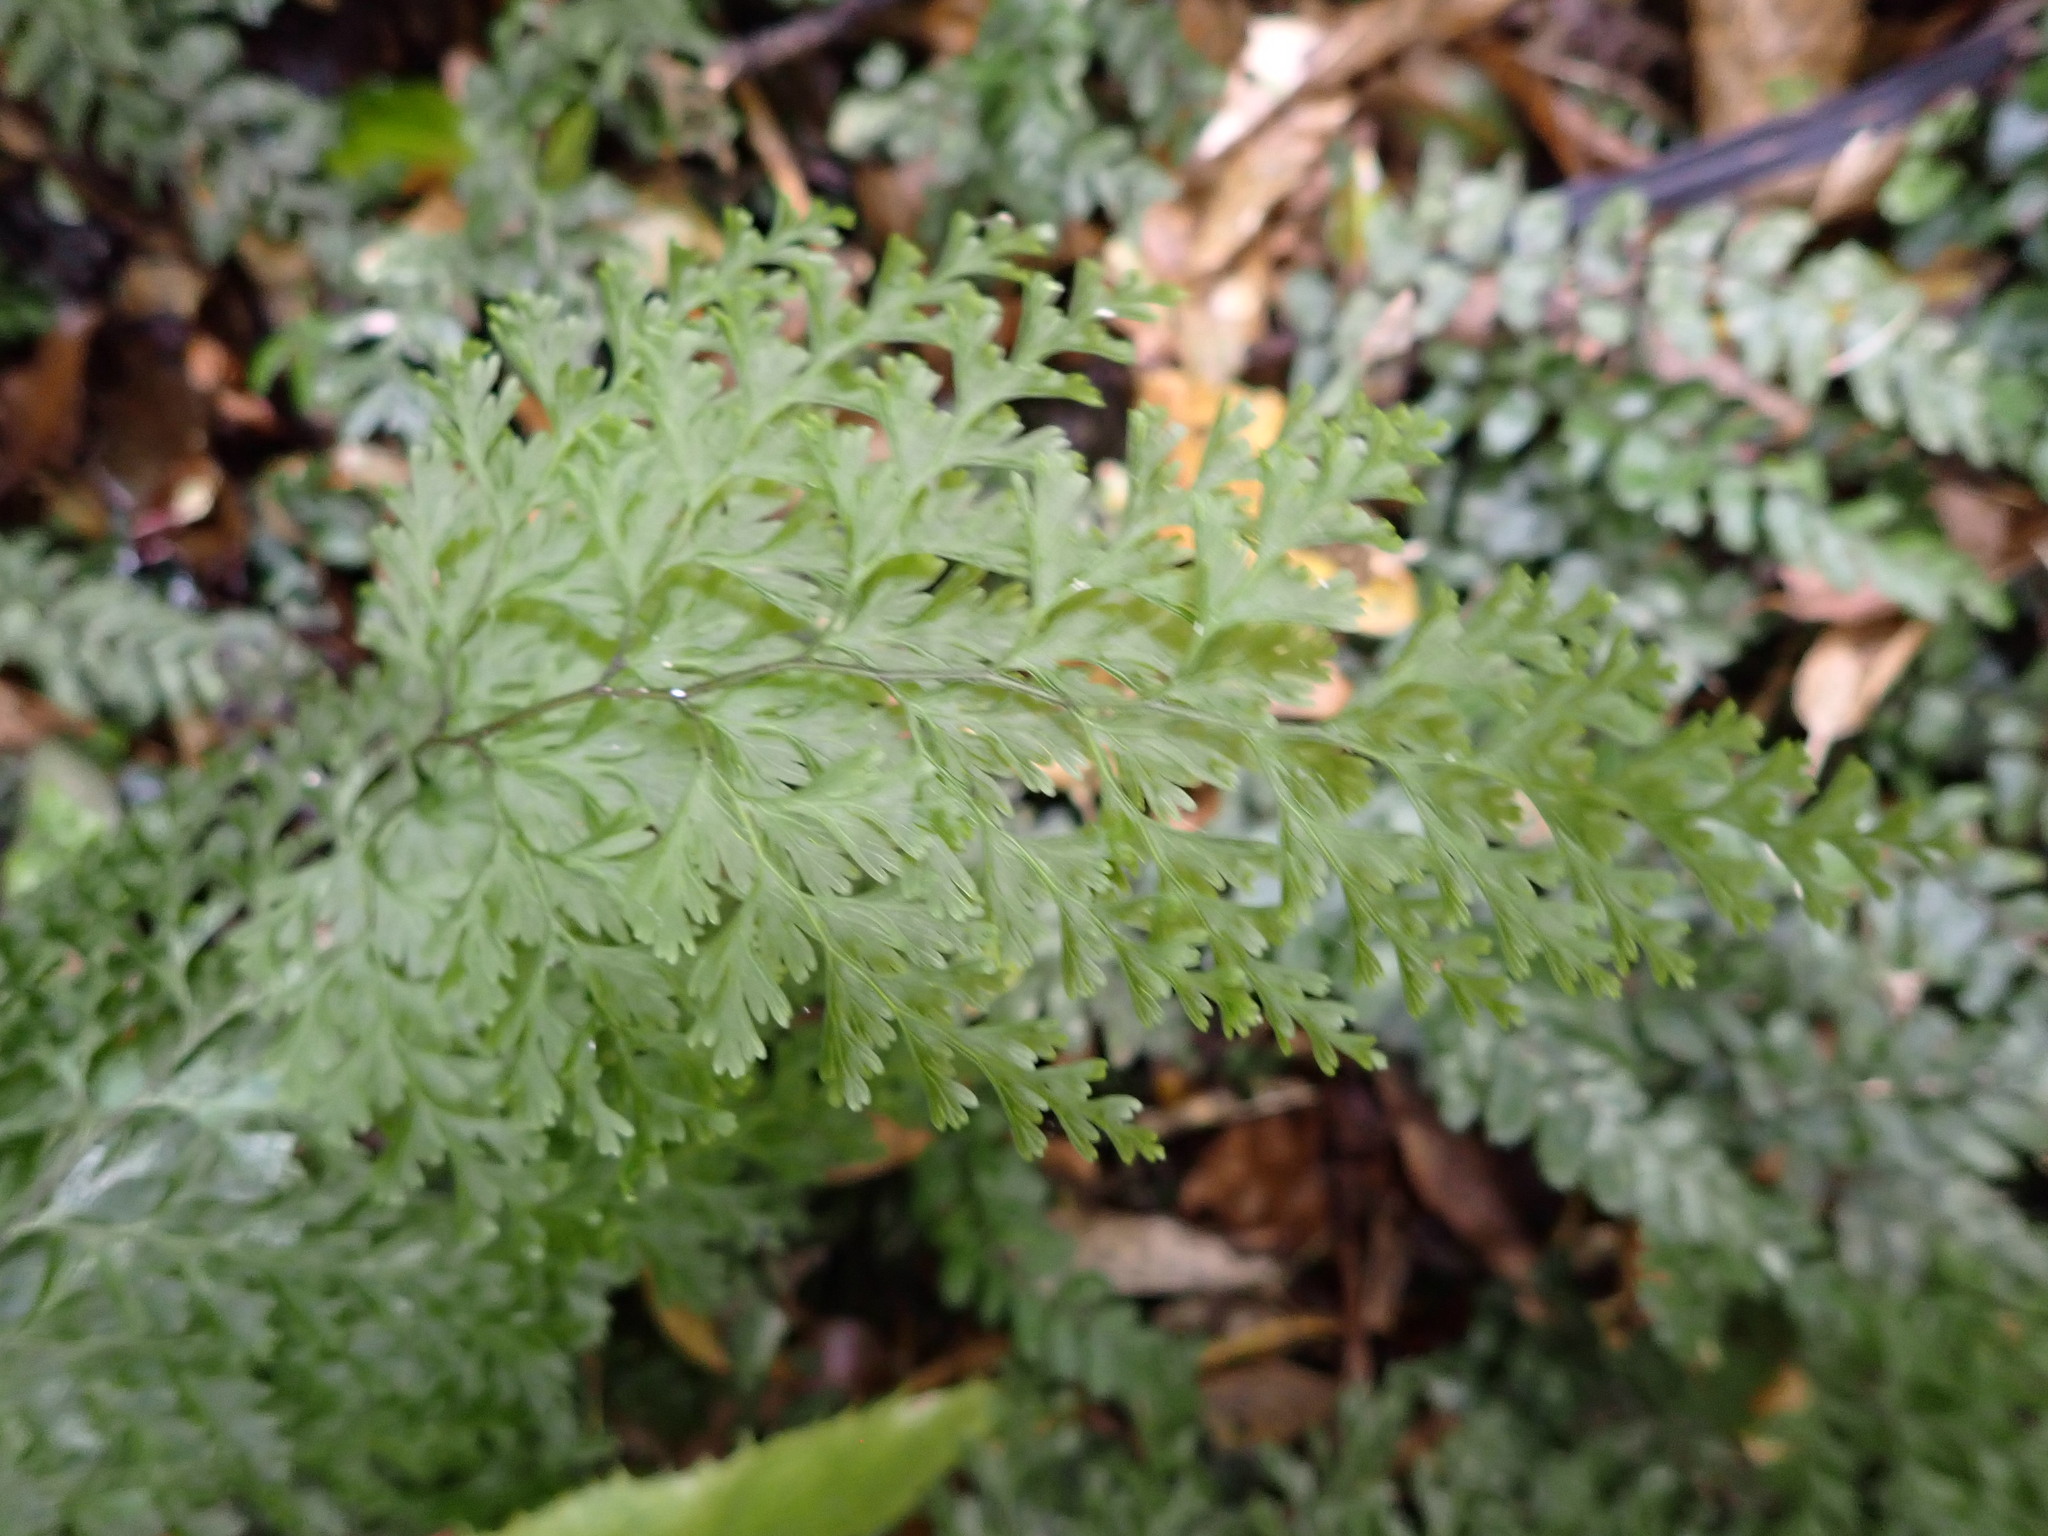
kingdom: Plantae
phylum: Tracheophyta
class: Polypodiopsida
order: Hymenophyllales
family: Hymenophyllaceae
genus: Hymenophyllum
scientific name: Hymenophyllum demissum
